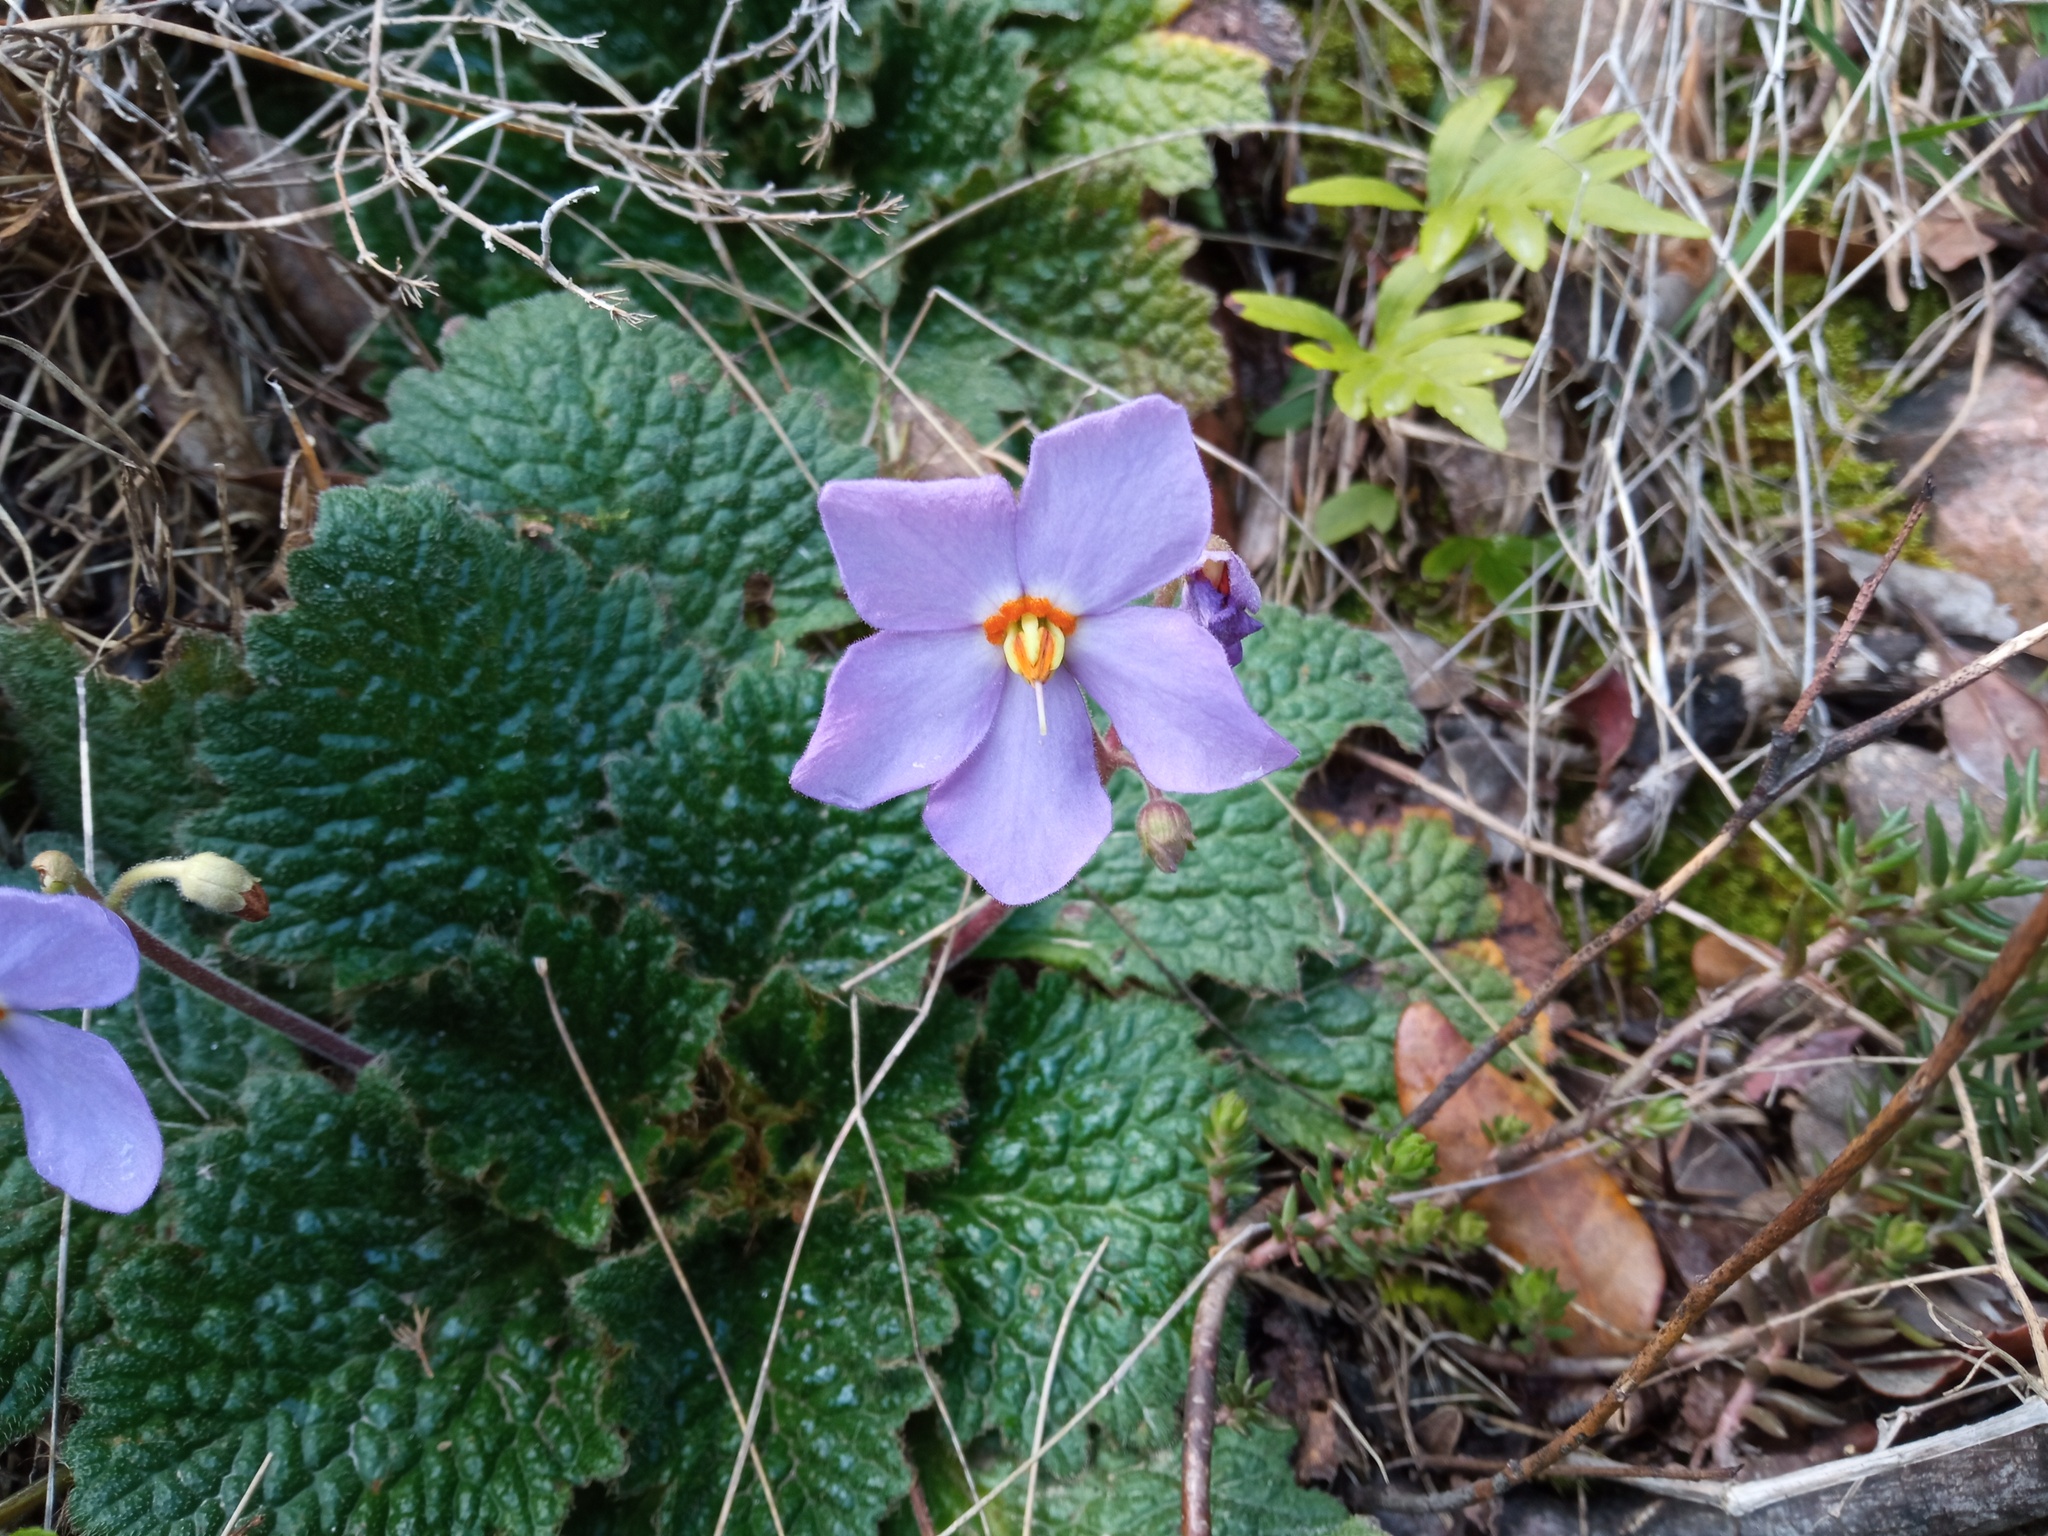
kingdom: Plantae
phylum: Tracheophyta
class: Magnoliopsida
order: Lamiales
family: Gesneriaceae
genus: Ramonda
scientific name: Ramonda myconi
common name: Pyrenean-violet
